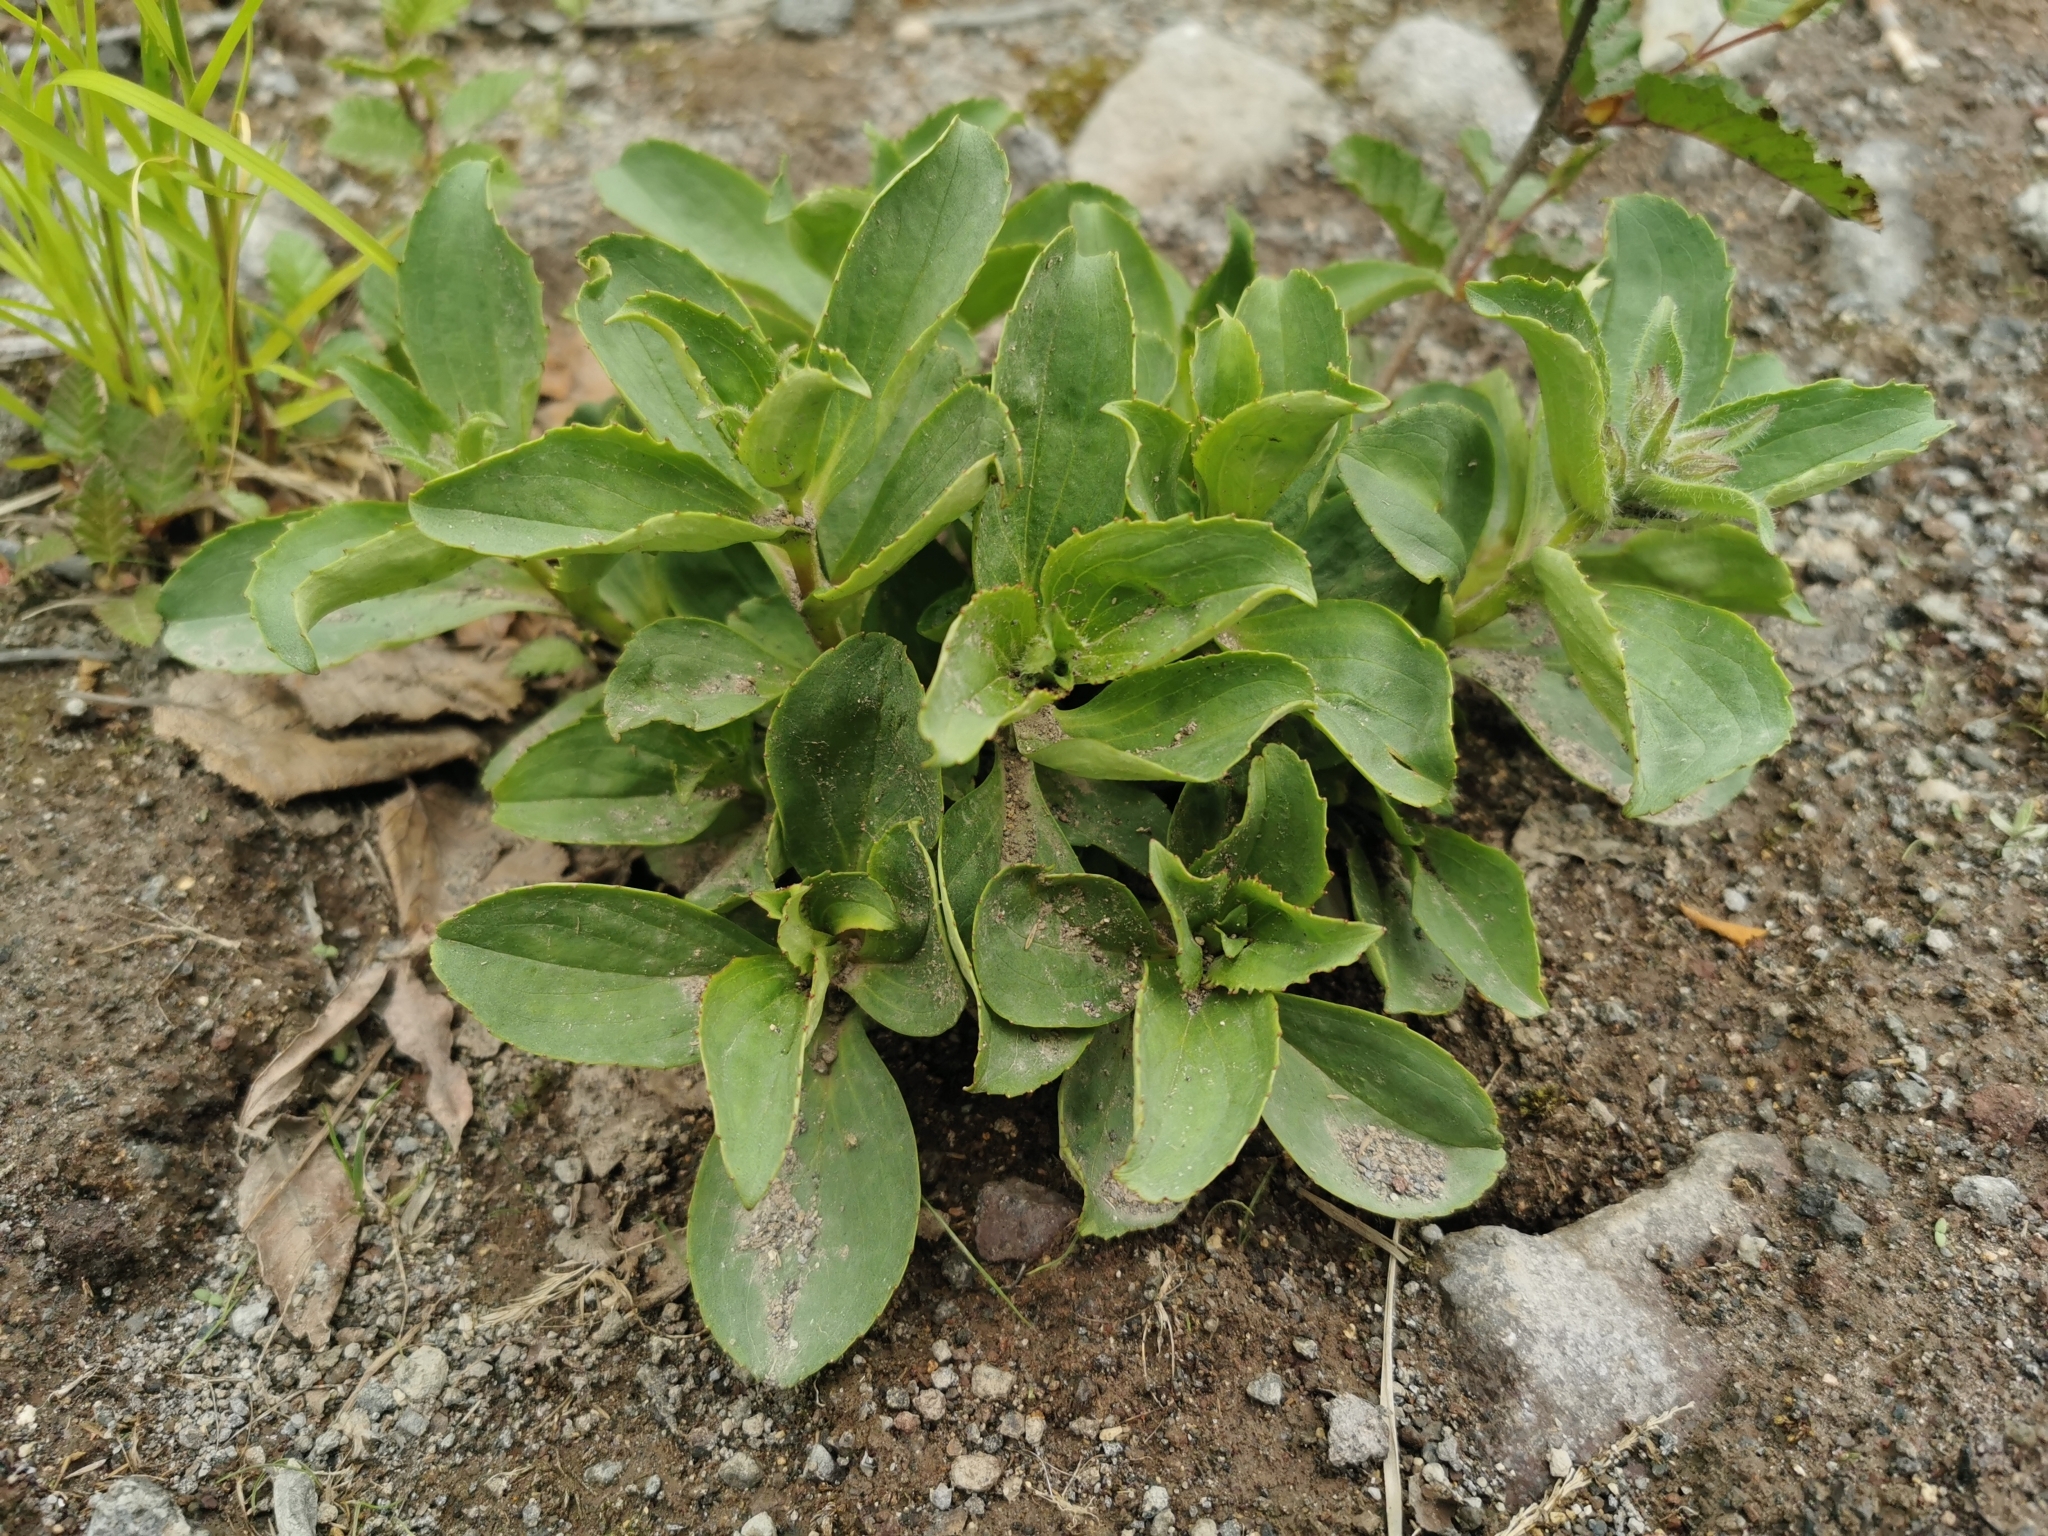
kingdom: Plantae
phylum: Tracheophyta
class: Magnoliopsida
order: Lamiales
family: Plantaginaceae
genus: Pennellianthus
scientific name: Pennellianthus frutescens
